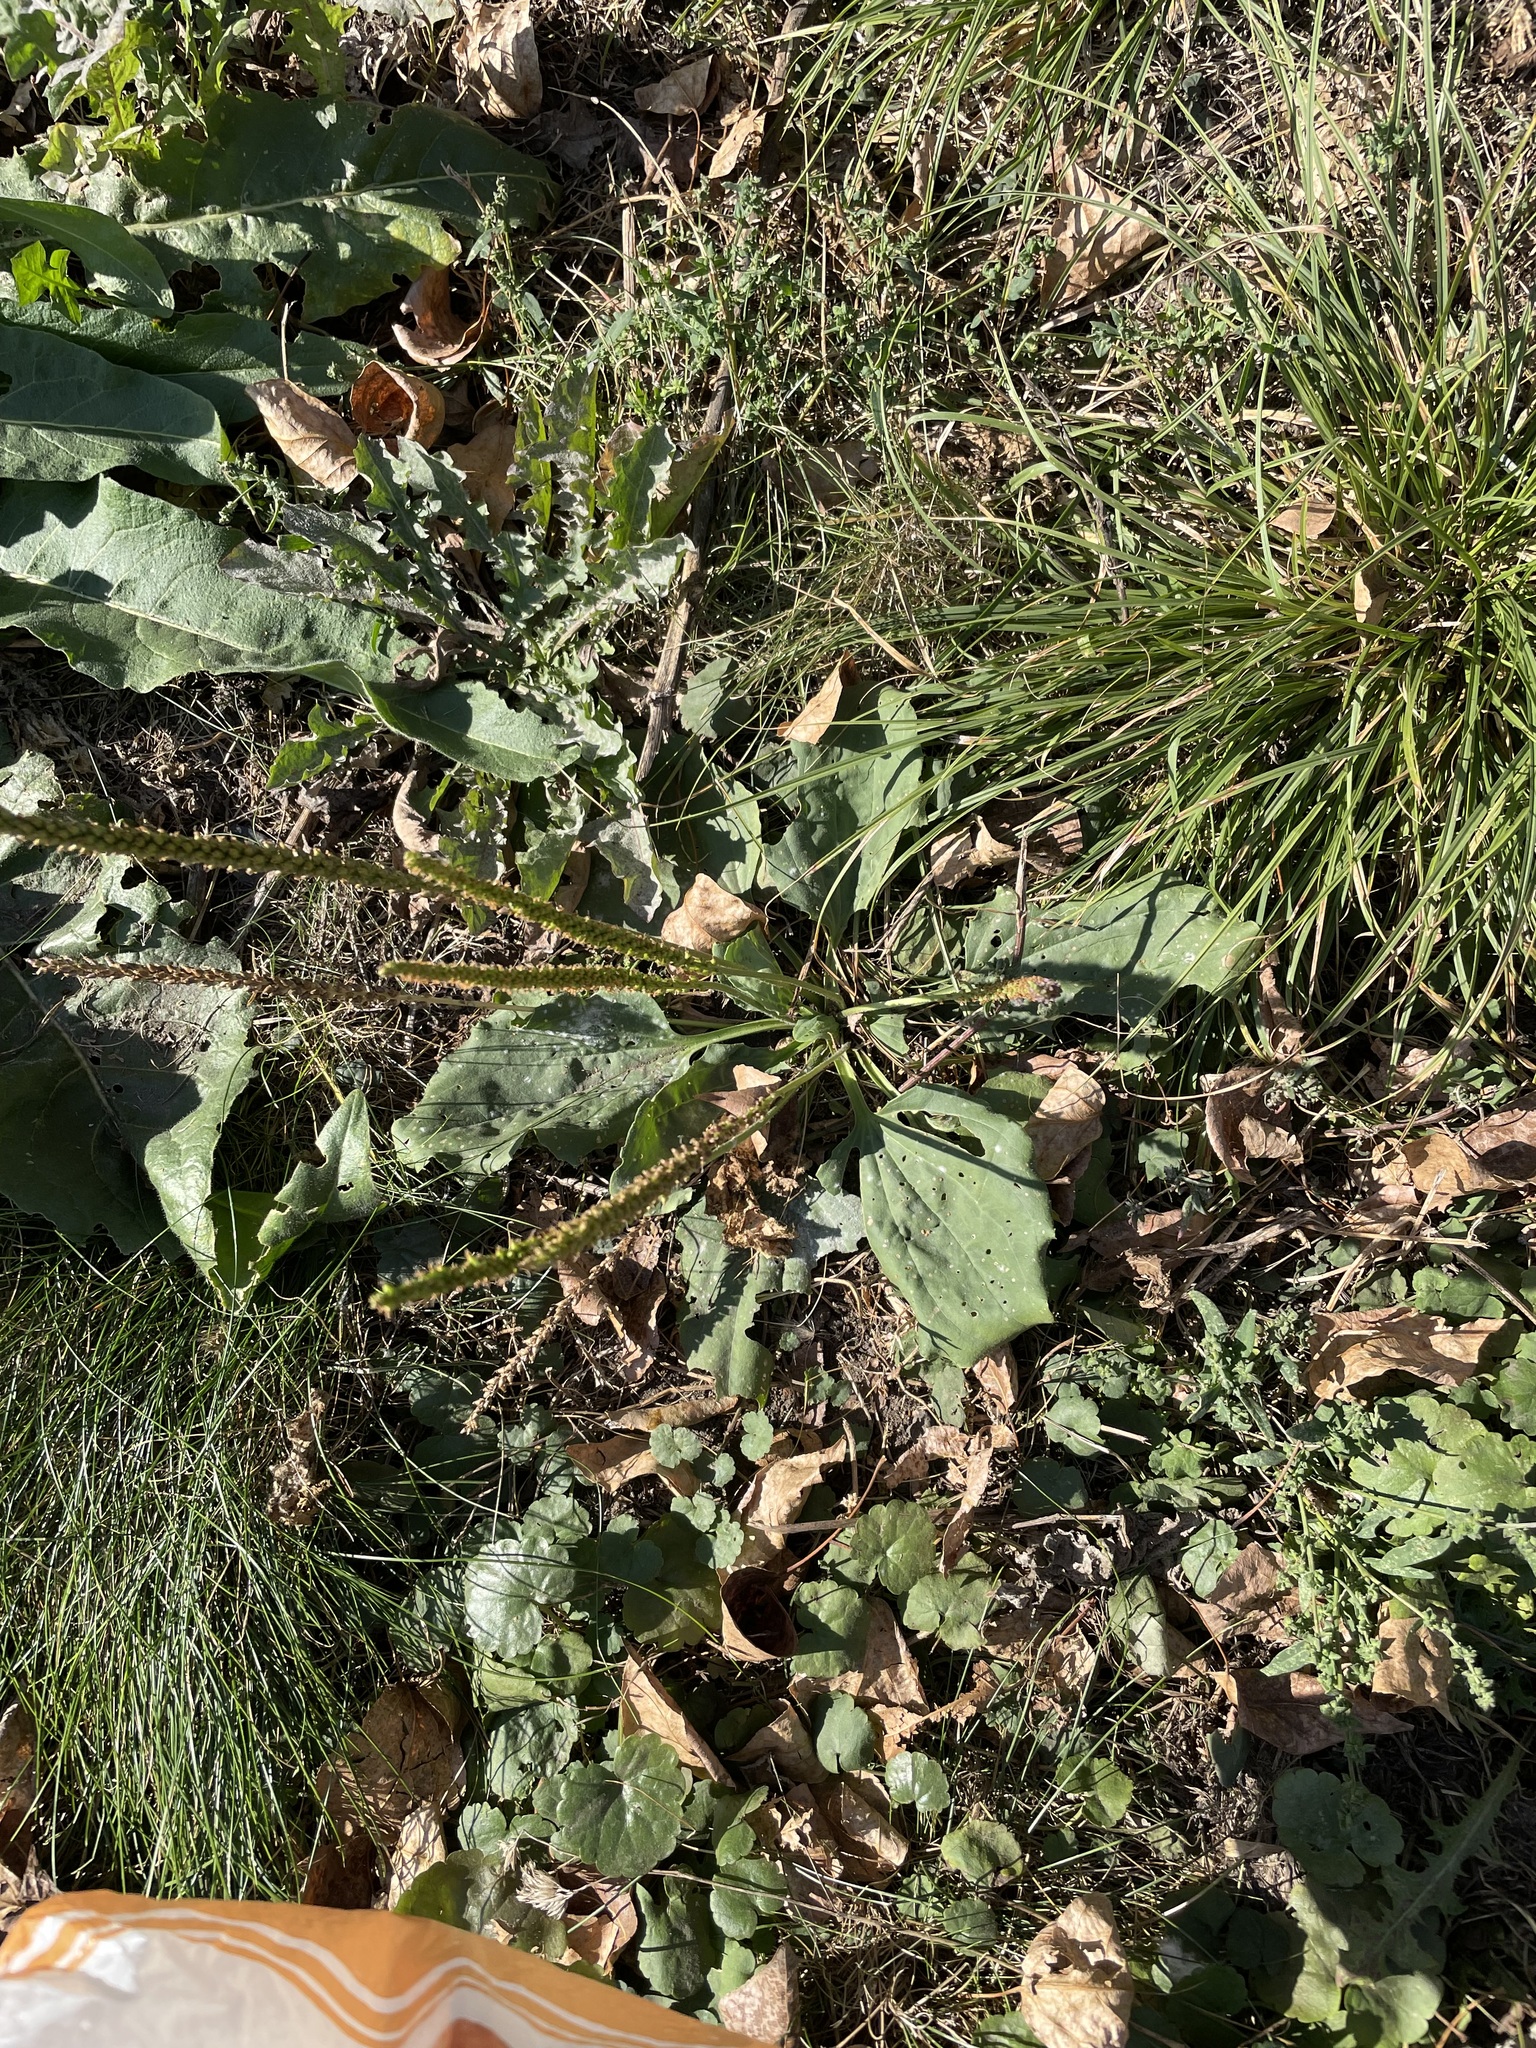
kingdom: Plantae
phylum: Tracheophyta
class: Magnoliopsida
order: Lamiales
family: Plantaginaceae
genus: Plantago
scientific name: Plantago major
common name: Common plantain
